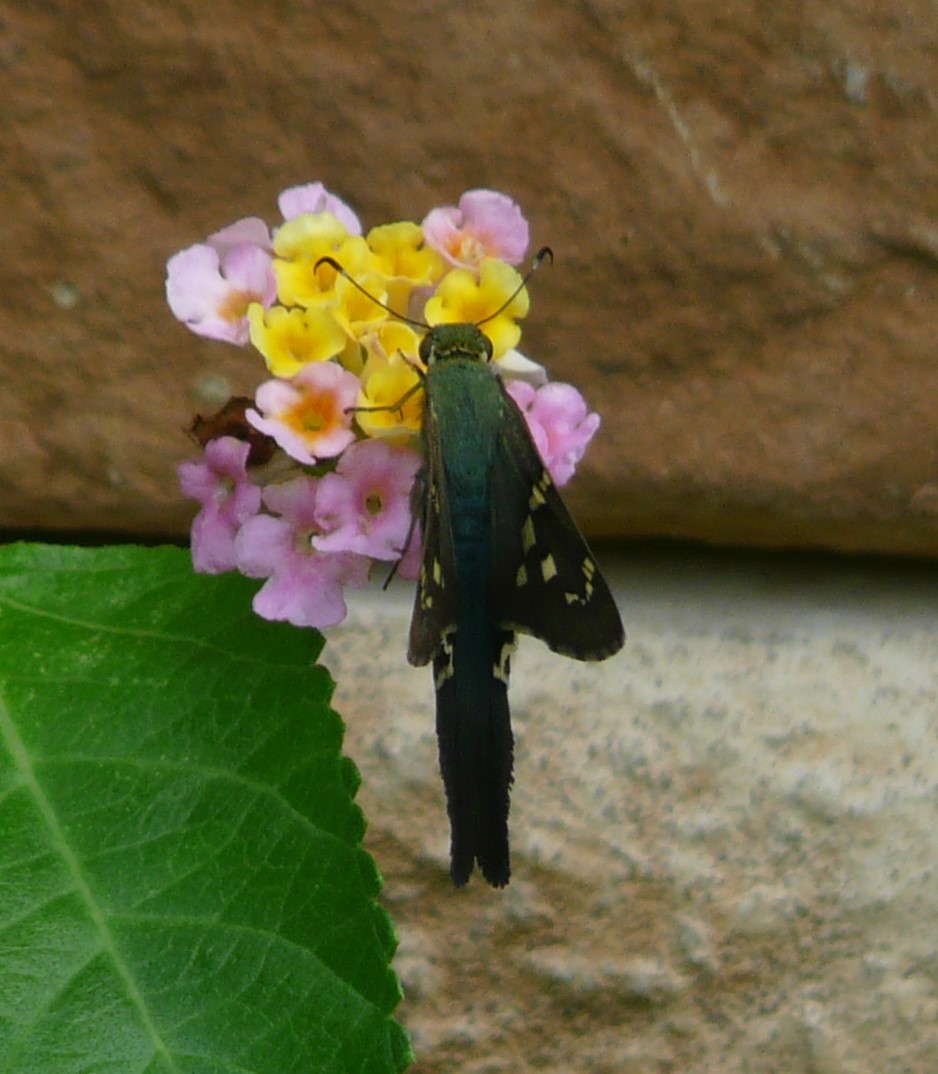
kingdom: Animalia
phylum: Arthropoda
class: Insecta
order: Lepidoptera
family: Hesperiidae
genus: Urbanus
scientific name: Urbanus proteus
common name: Long-tailed skipper
